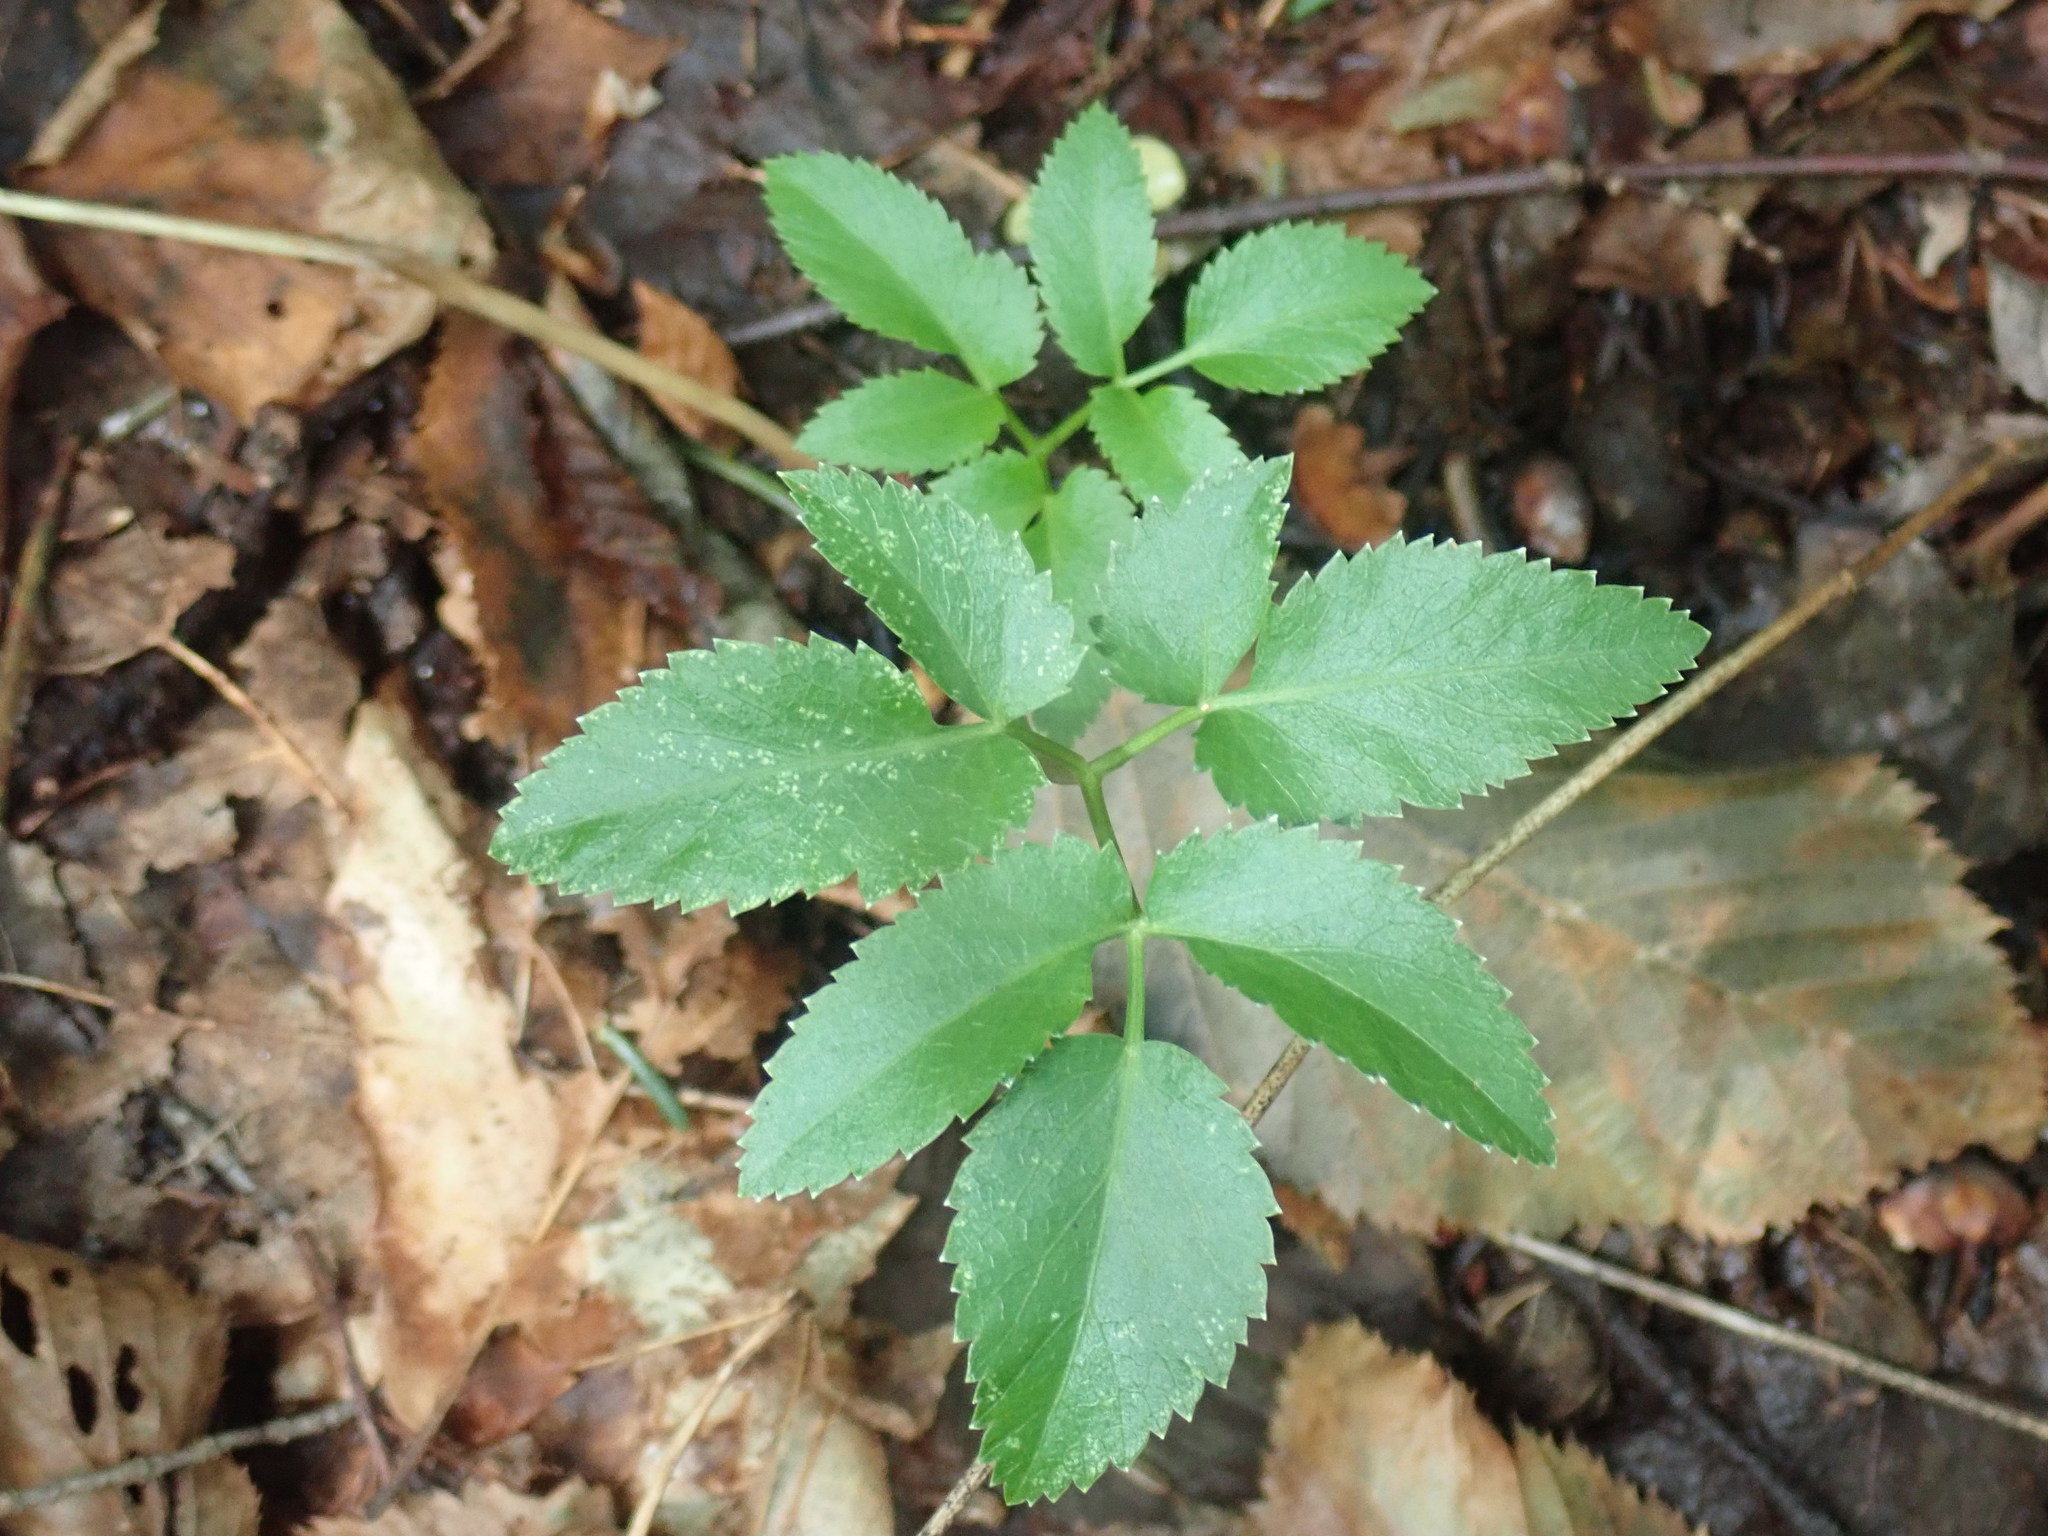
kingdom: Plantae
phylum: Tracheophyta
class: Magnoliopsida
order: Apiales
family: Apiaceae
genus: Zizia
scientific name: Zizia aurea
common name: Golden alexanders
